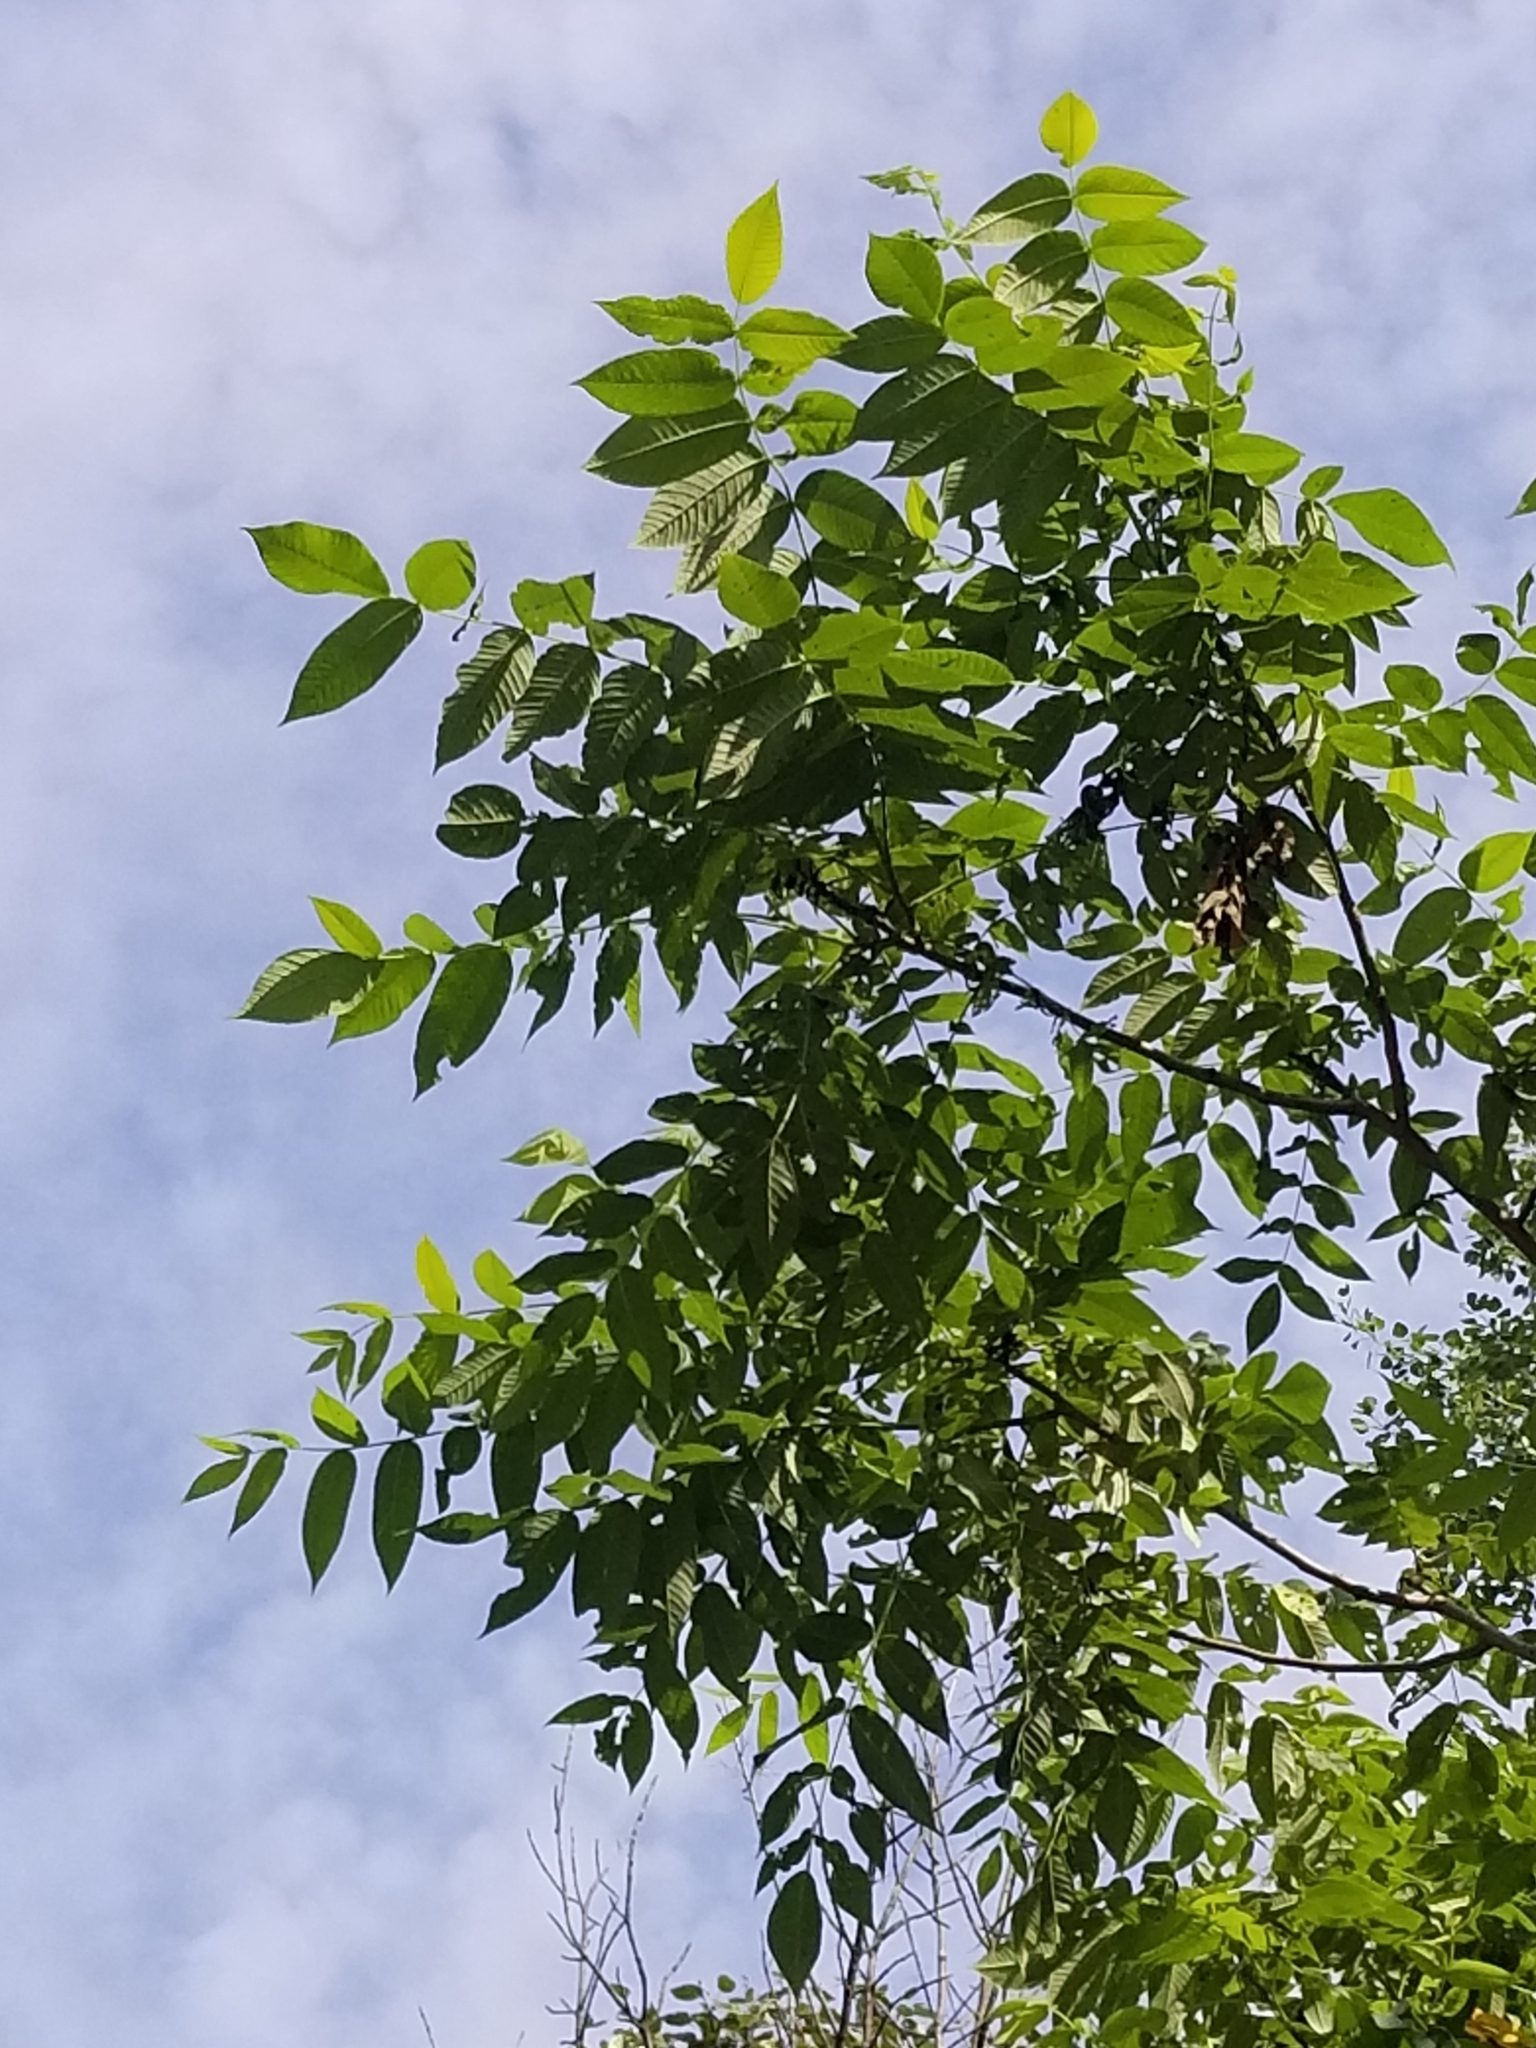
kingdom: Plantae
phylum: Tracheophyta
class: Magnoliopsida
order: Fagales
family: Juglandaceae
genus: Juglans
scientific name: Juglans cinerea
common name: Butternut
